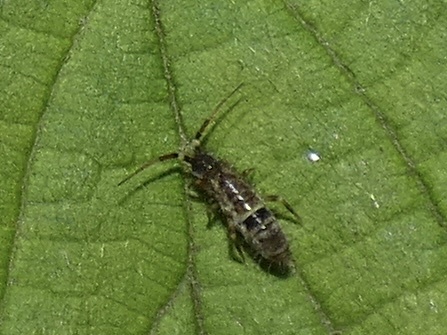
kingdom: Animalia
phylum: Arthropoda
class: Collembola
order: Entomobryomorpha
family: Orchesellidae
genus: Orchesella
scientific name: Orchesella cincta
